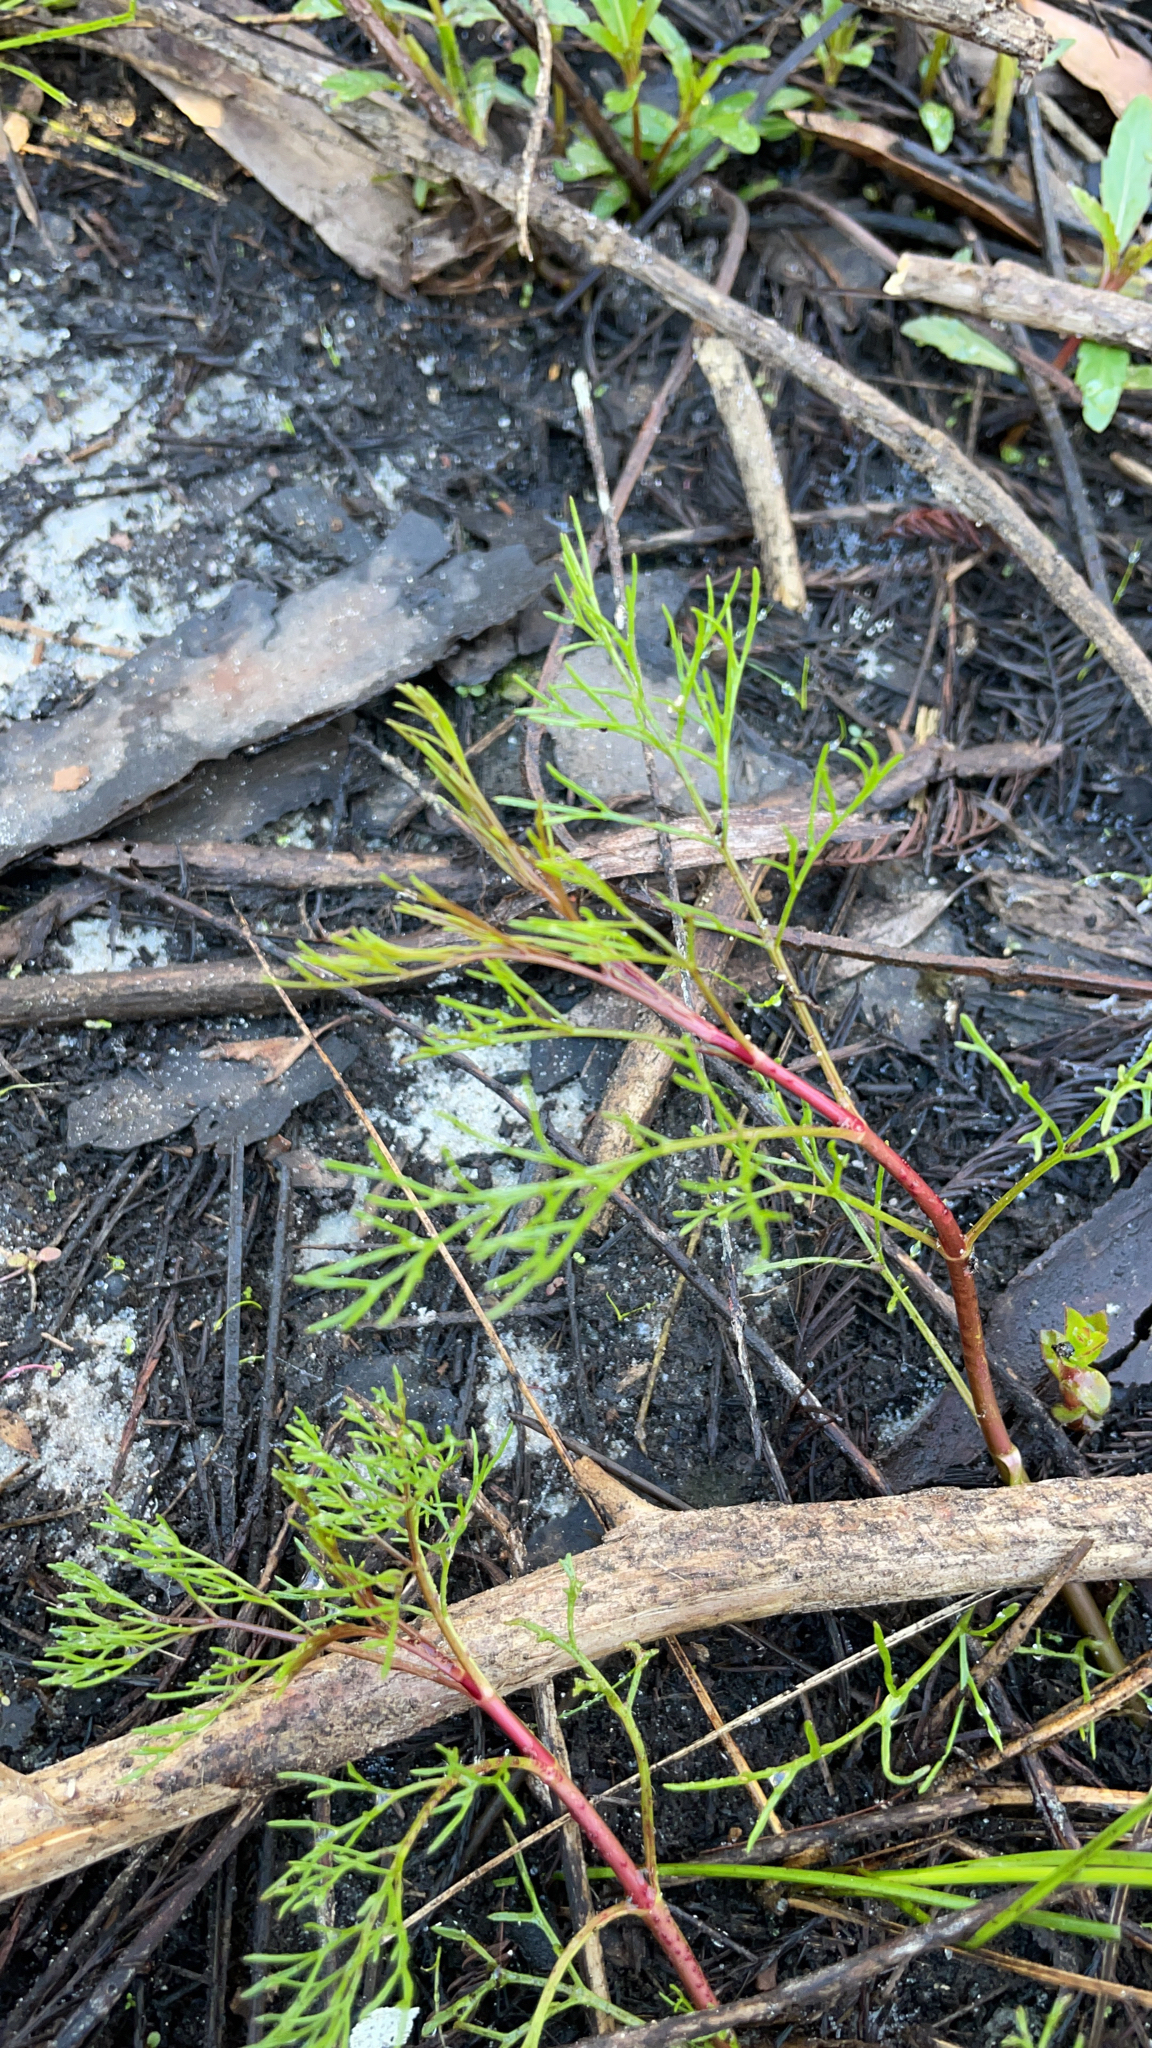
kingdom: Plantae
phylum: Tracheophyta
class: Magnoliopsida
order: Asterales
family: Asteraceae
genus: Eupatorium
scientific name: Eupatorium leptophyllum
